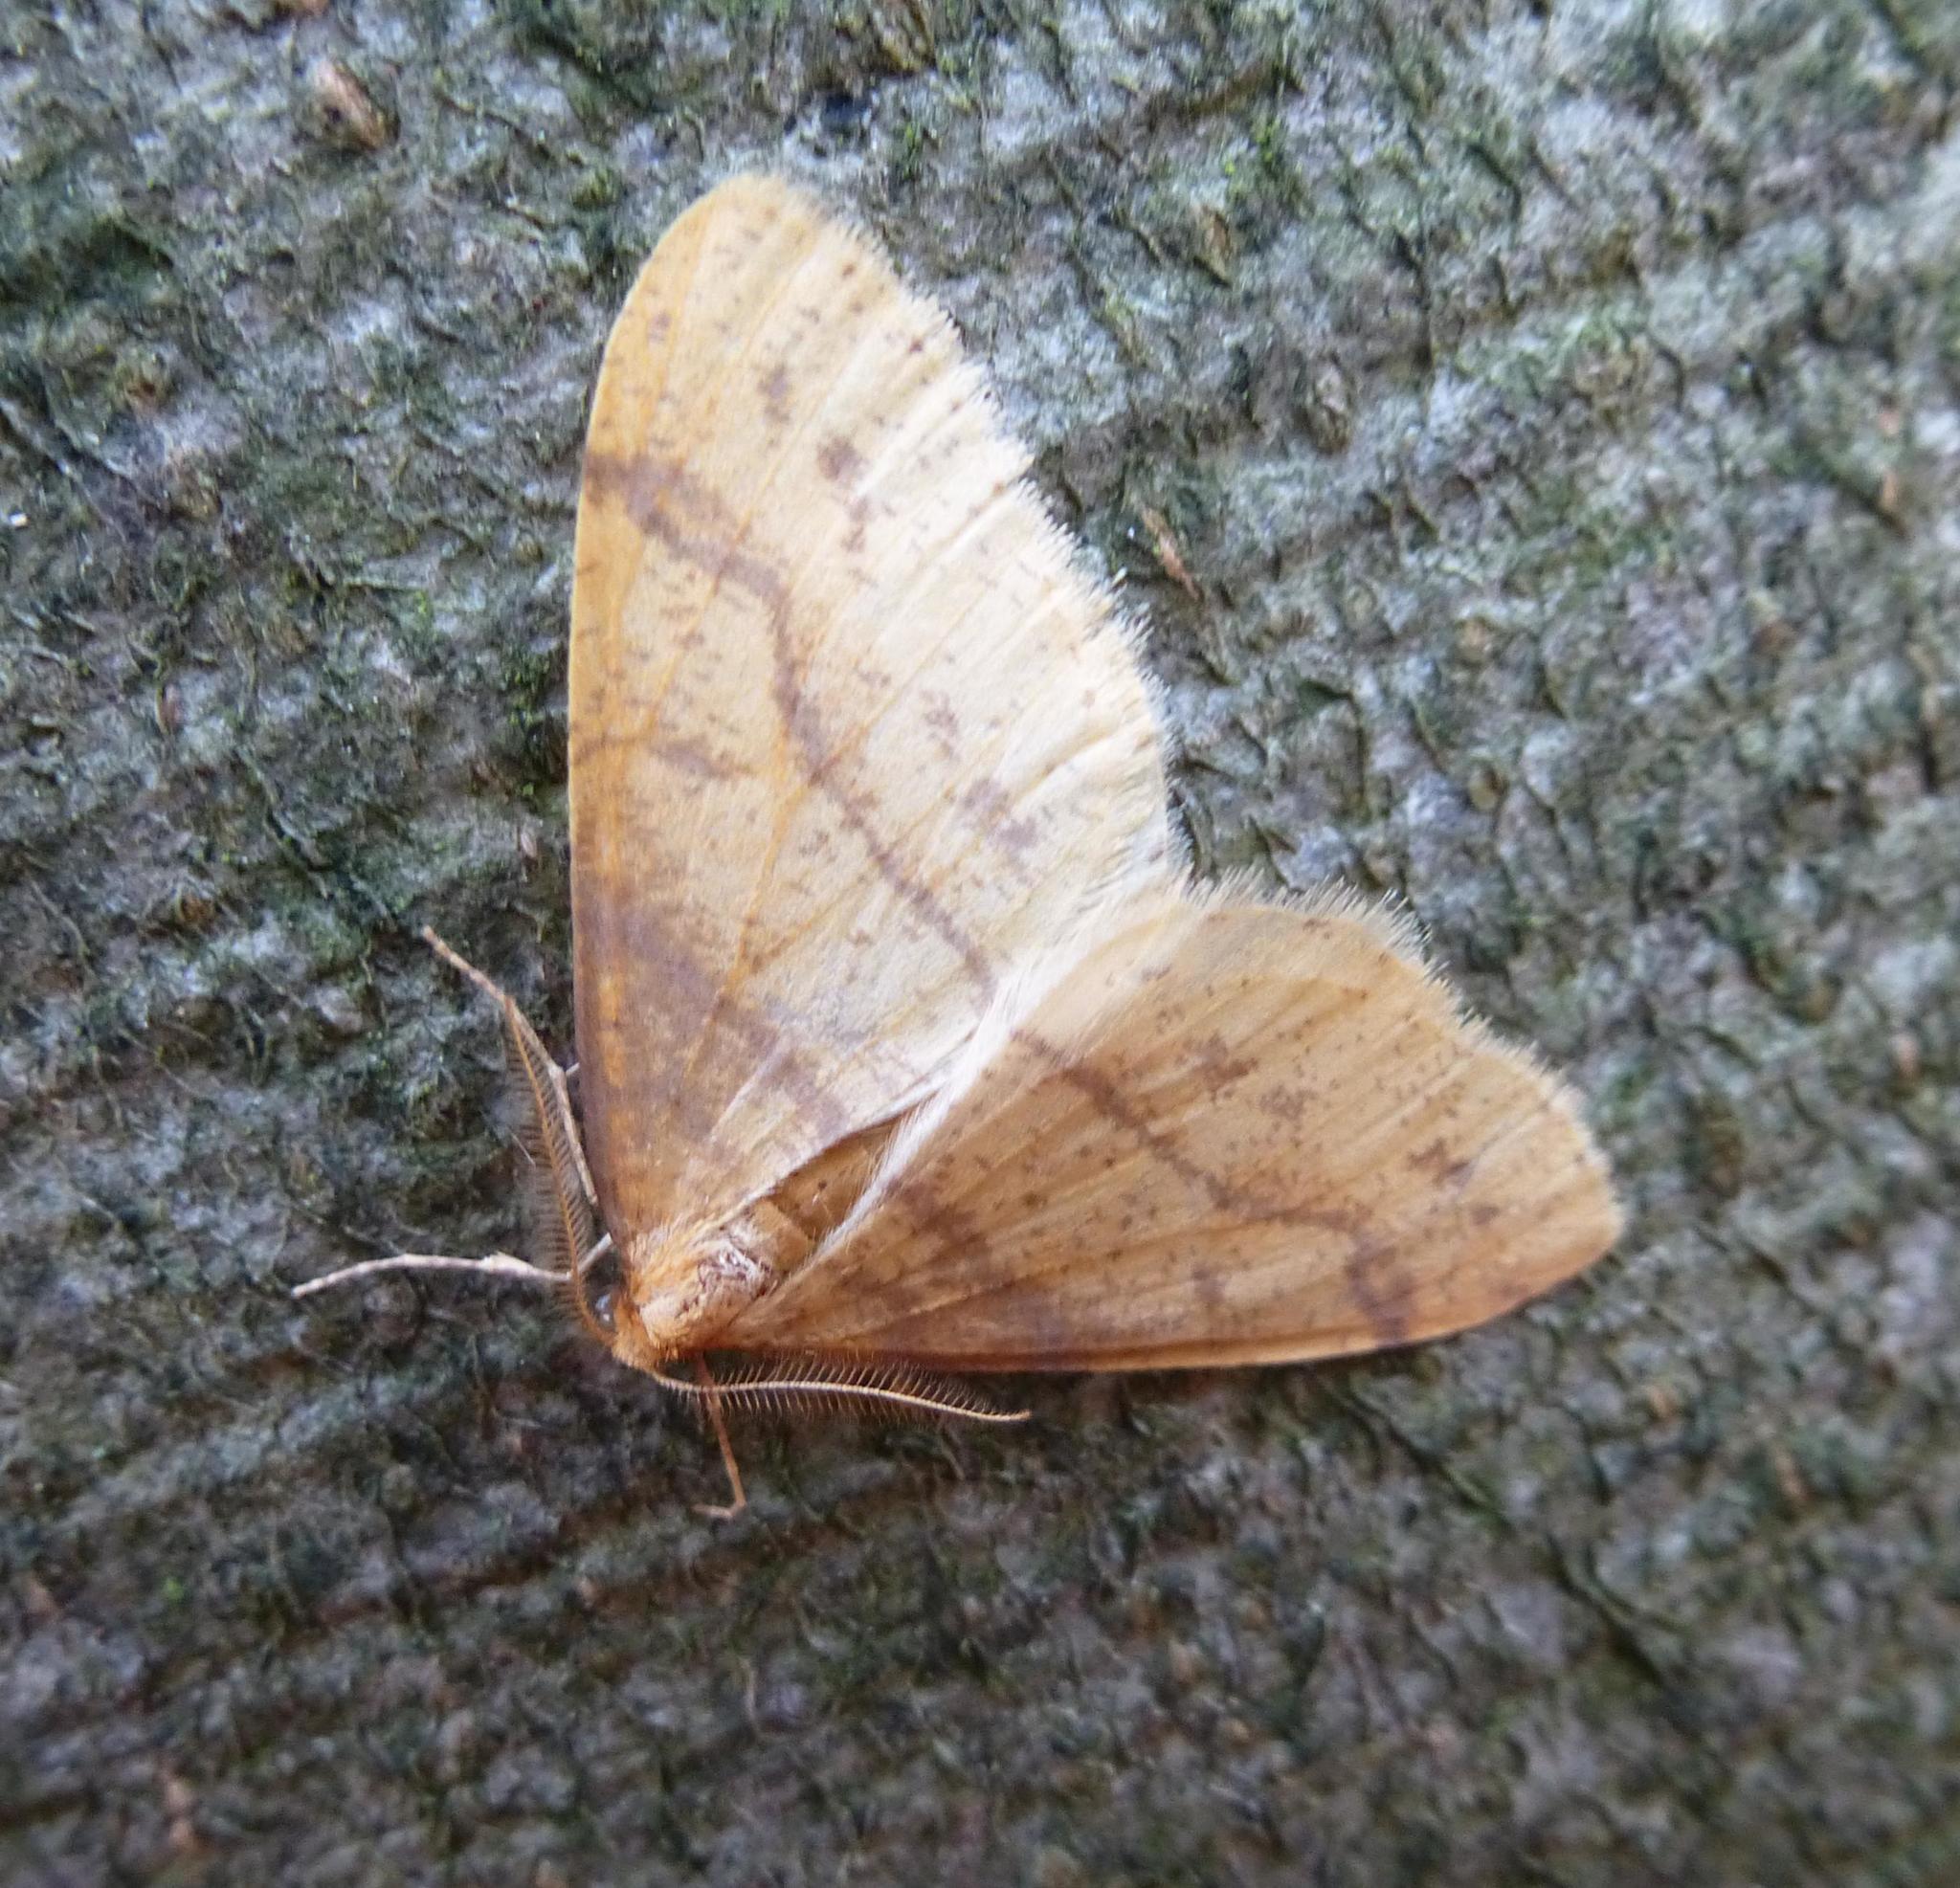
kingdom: Animalia
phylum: Arthropoda
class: Insecta
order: Lepidoptera
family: Geometridae
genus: Agriopis
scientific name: Agriopis aurantiaria
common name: Scarce umber
